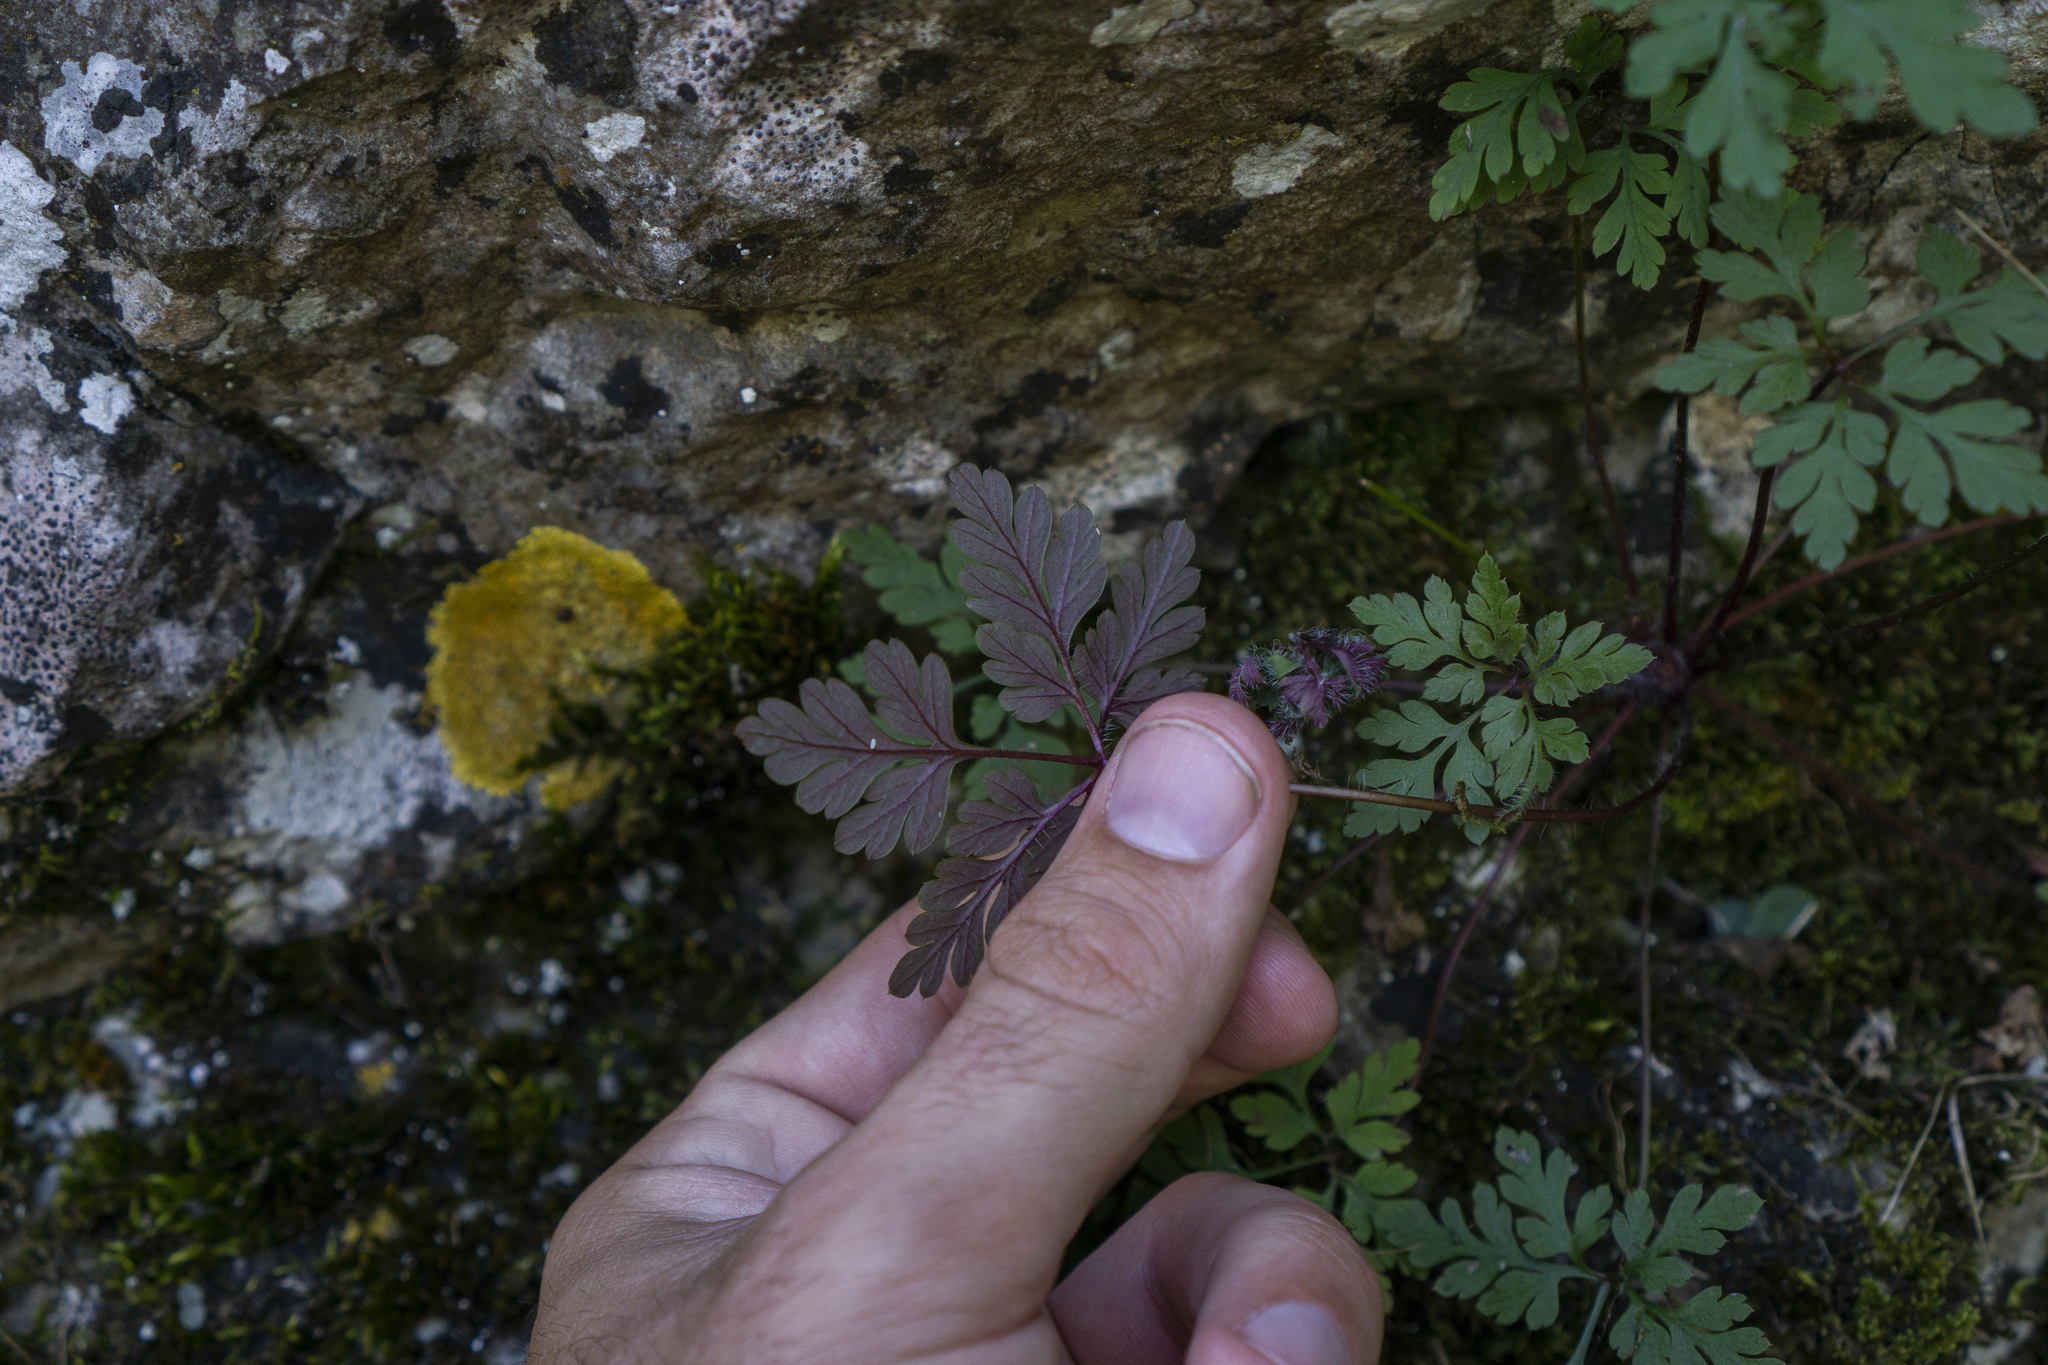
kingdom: Plantae
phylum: Tracheophyta
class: Magnoliopsida
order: Geraniales
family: Geraniaceae
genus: Geranium
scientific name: Geranium robertianum
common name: Herb-robert
